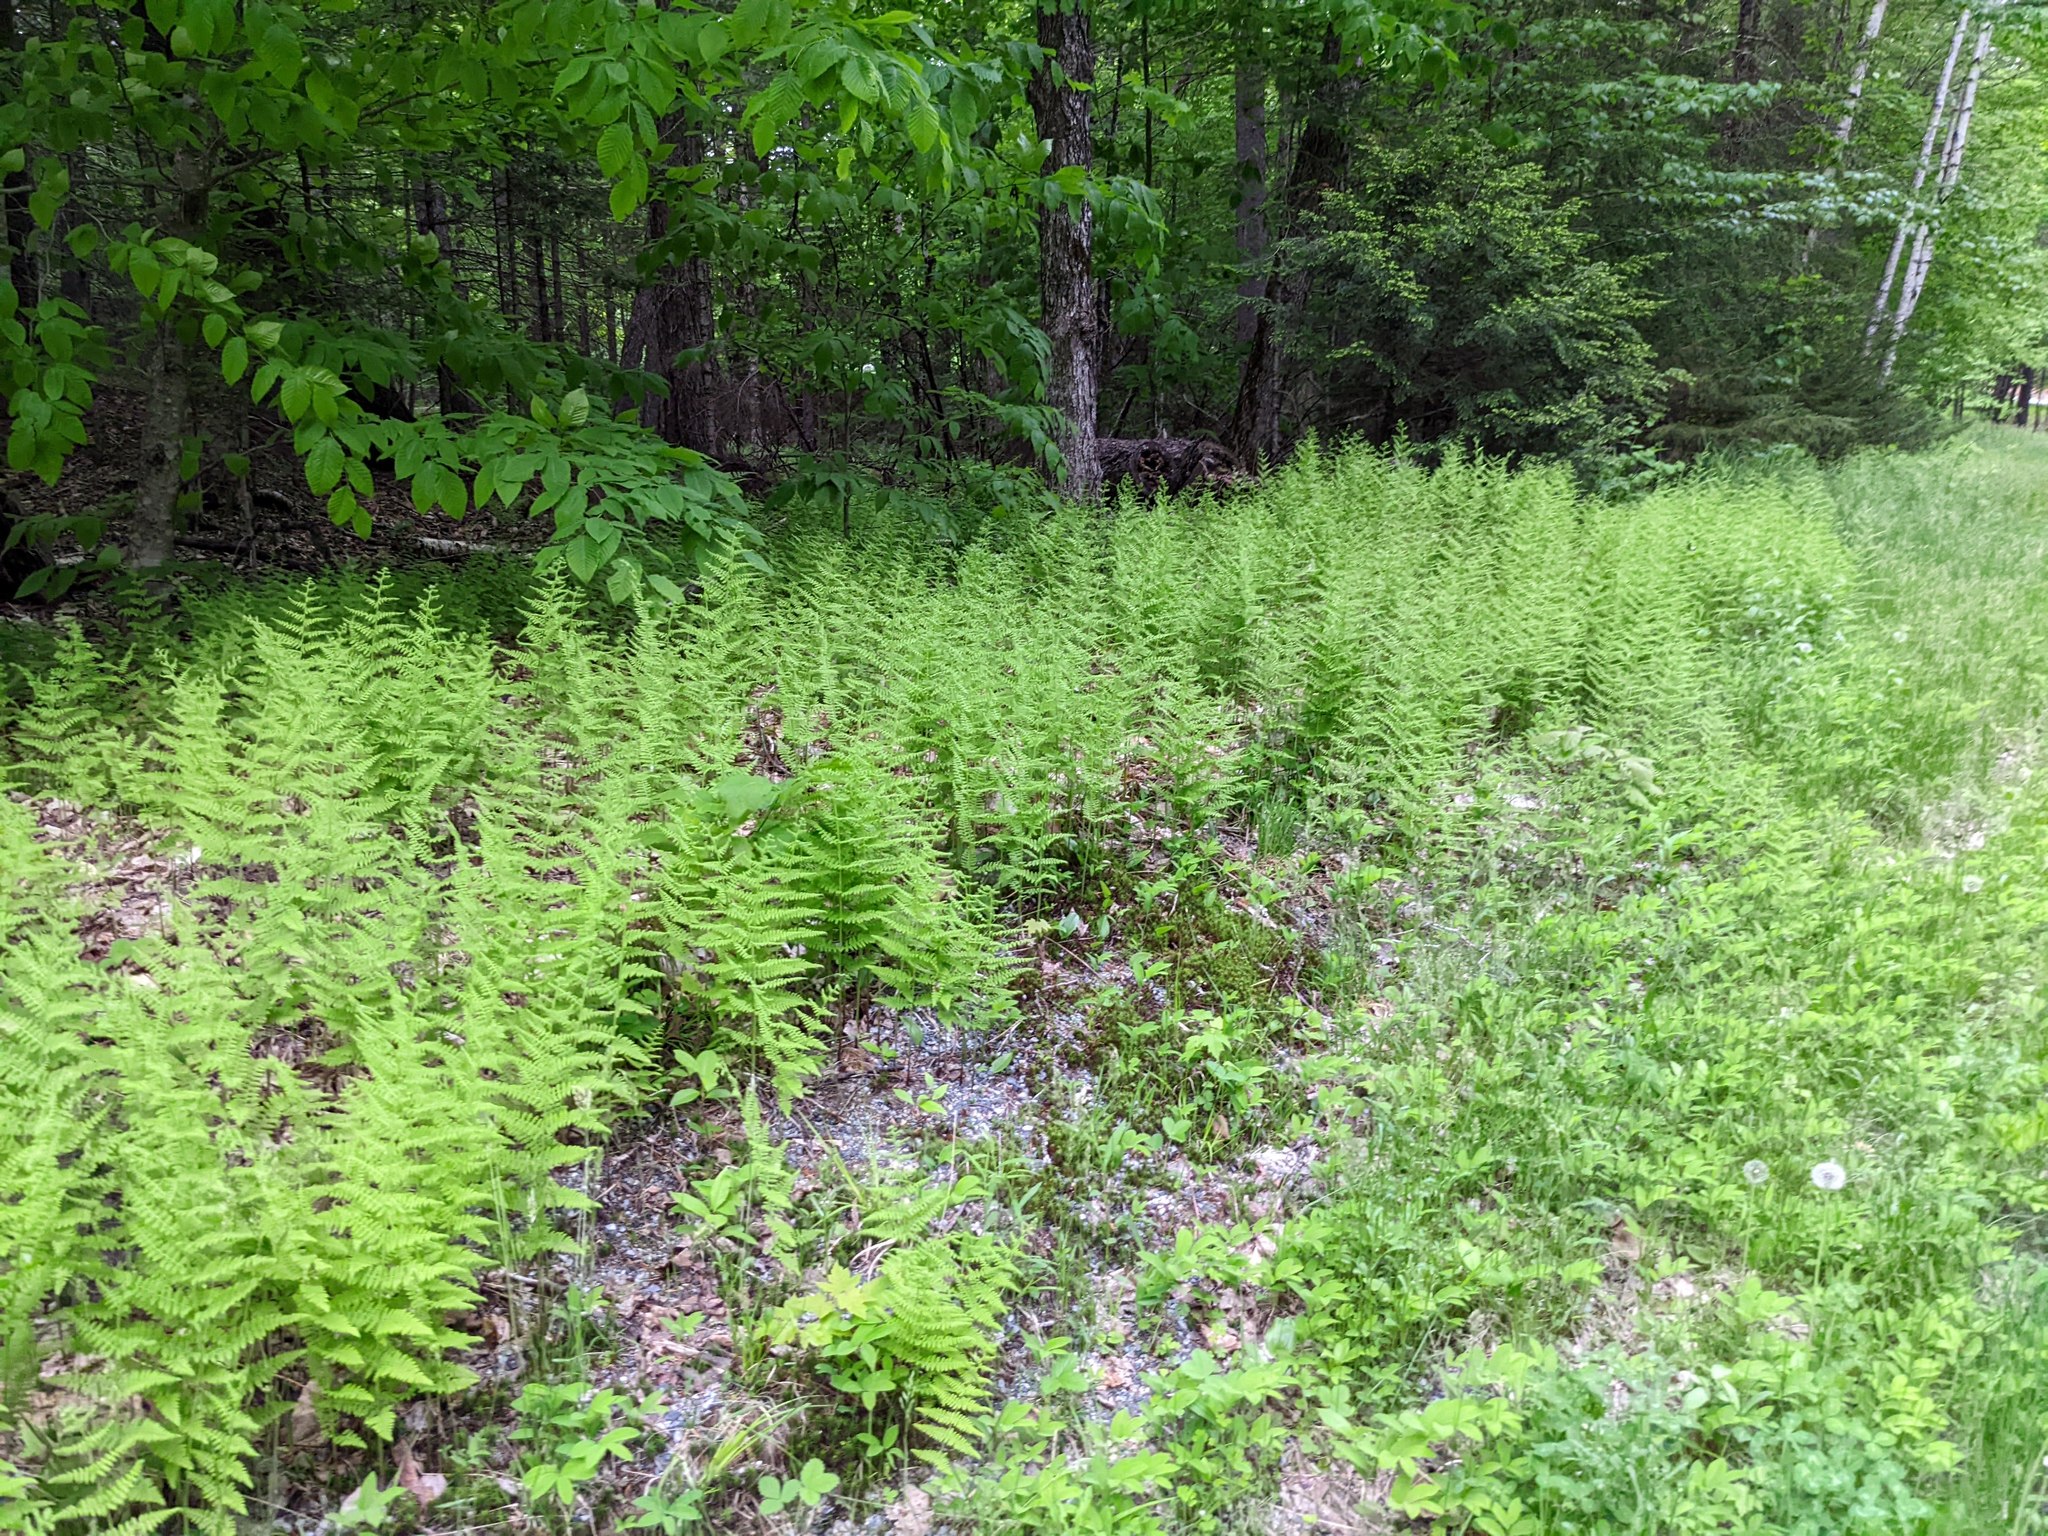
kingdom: Plantae
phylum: Tracheophyta
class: Polypodiopsida
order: Polypodiales
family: Dennstaedtiaceae
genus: Sitobolium
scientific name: Sitobolium punctilobum
